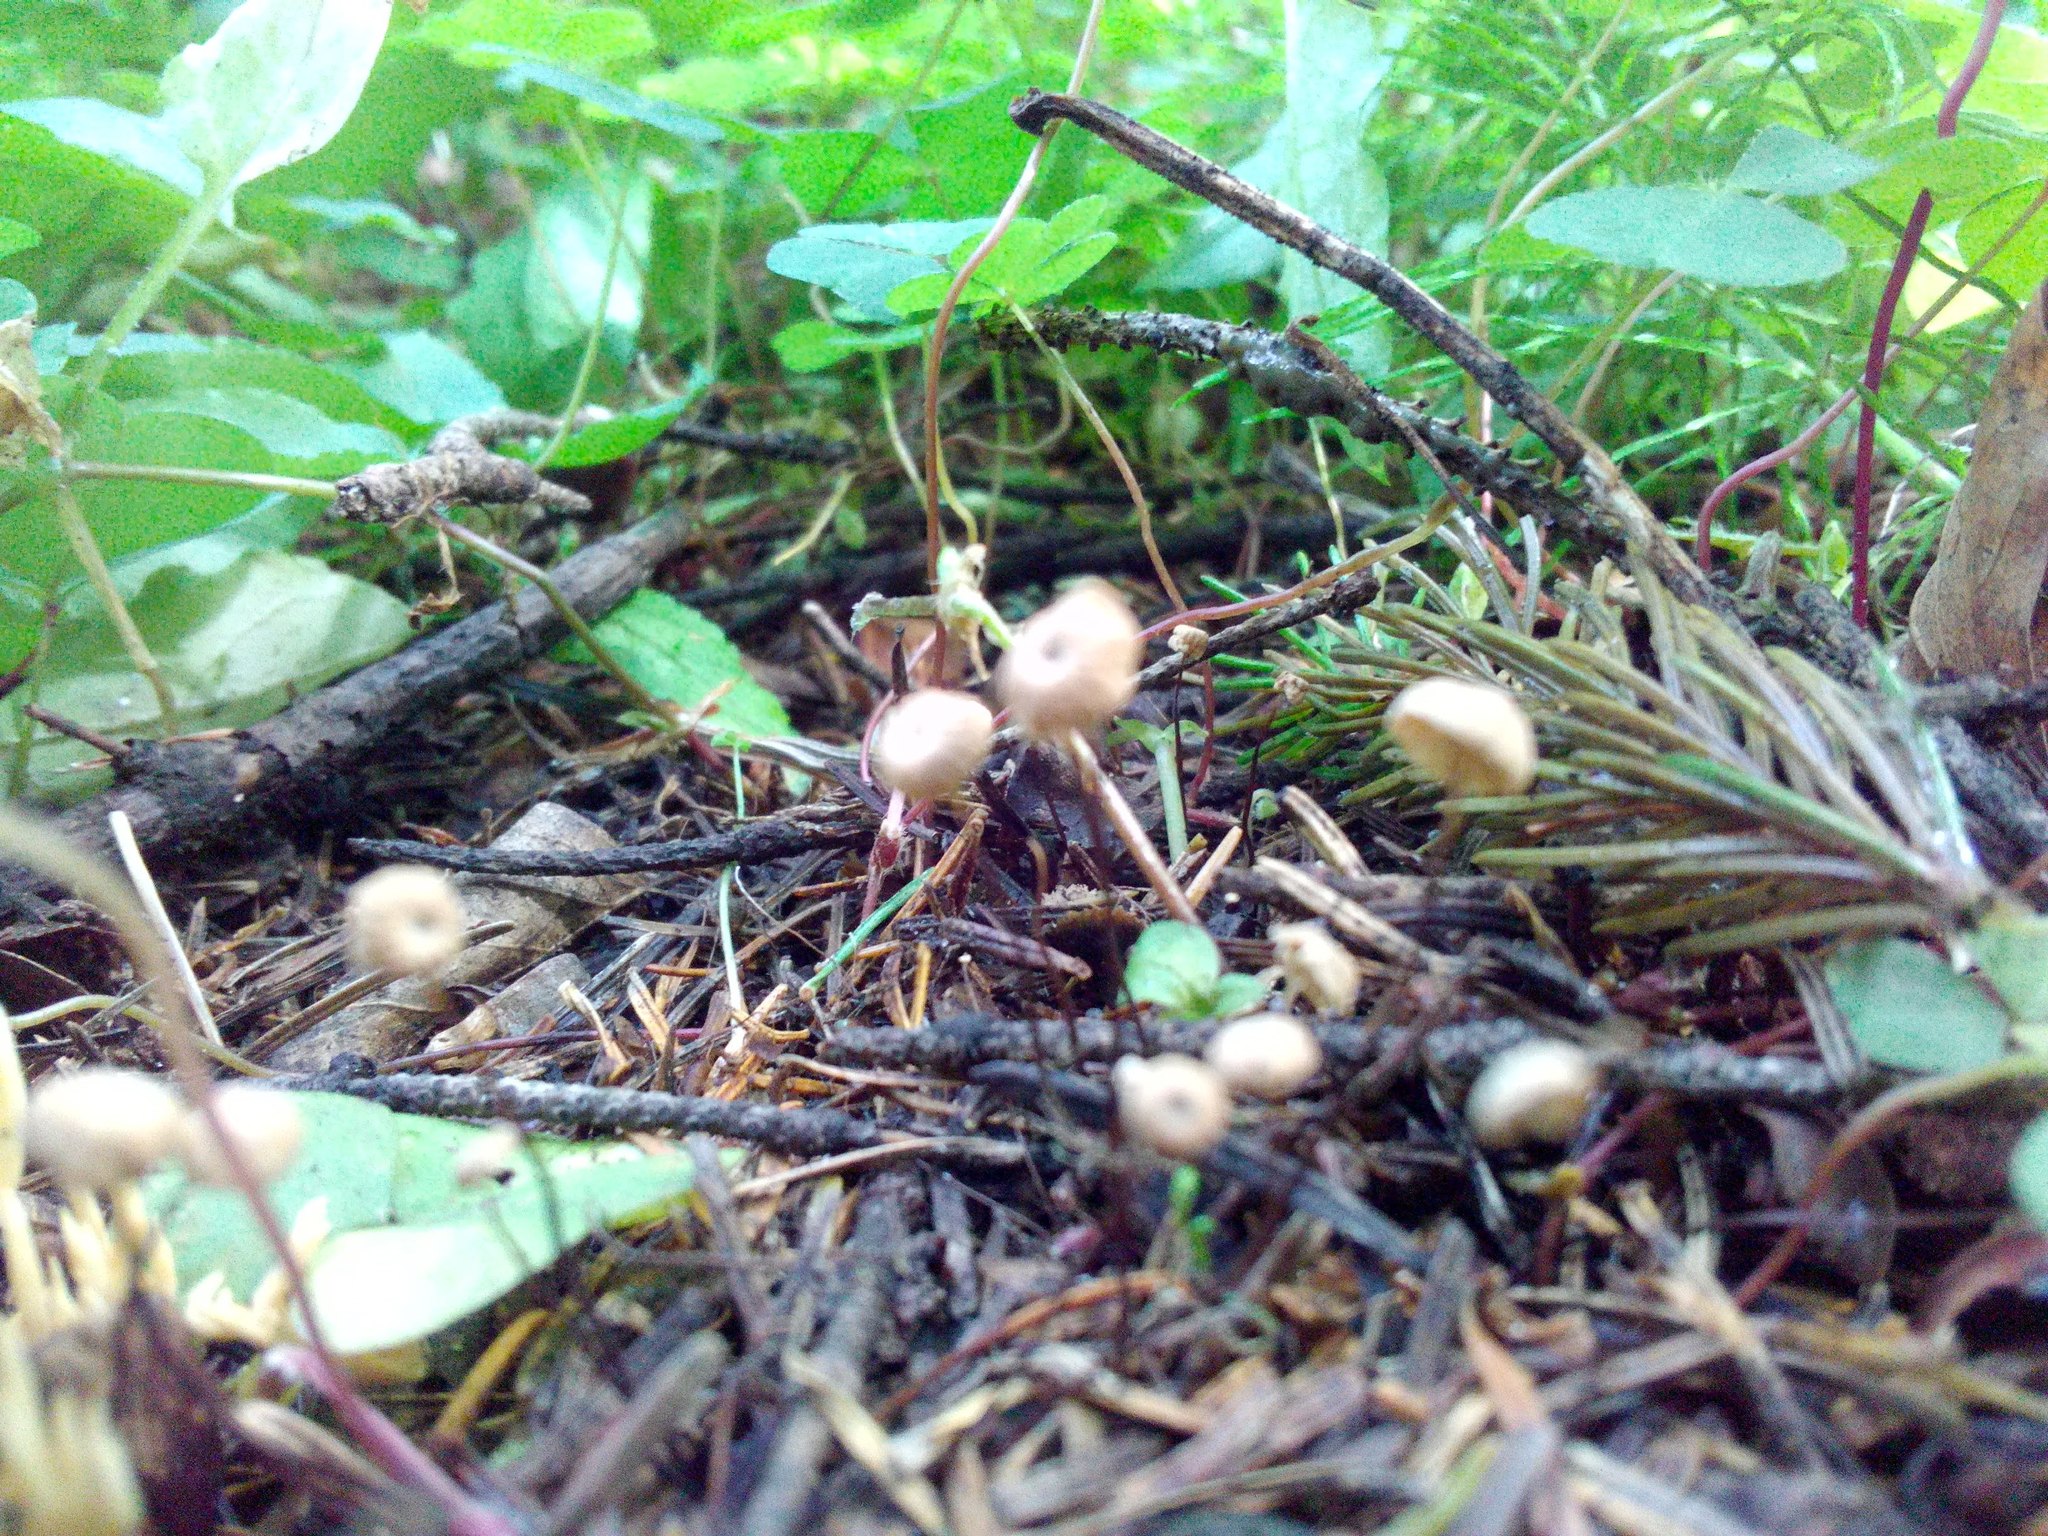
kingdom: Fungi
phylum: Basidiomycota
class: Agaricomycetes
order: Agaricales
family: Marasmiaceae
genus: Marasmius
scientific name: Marasmius rotula
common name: Collared parachute
